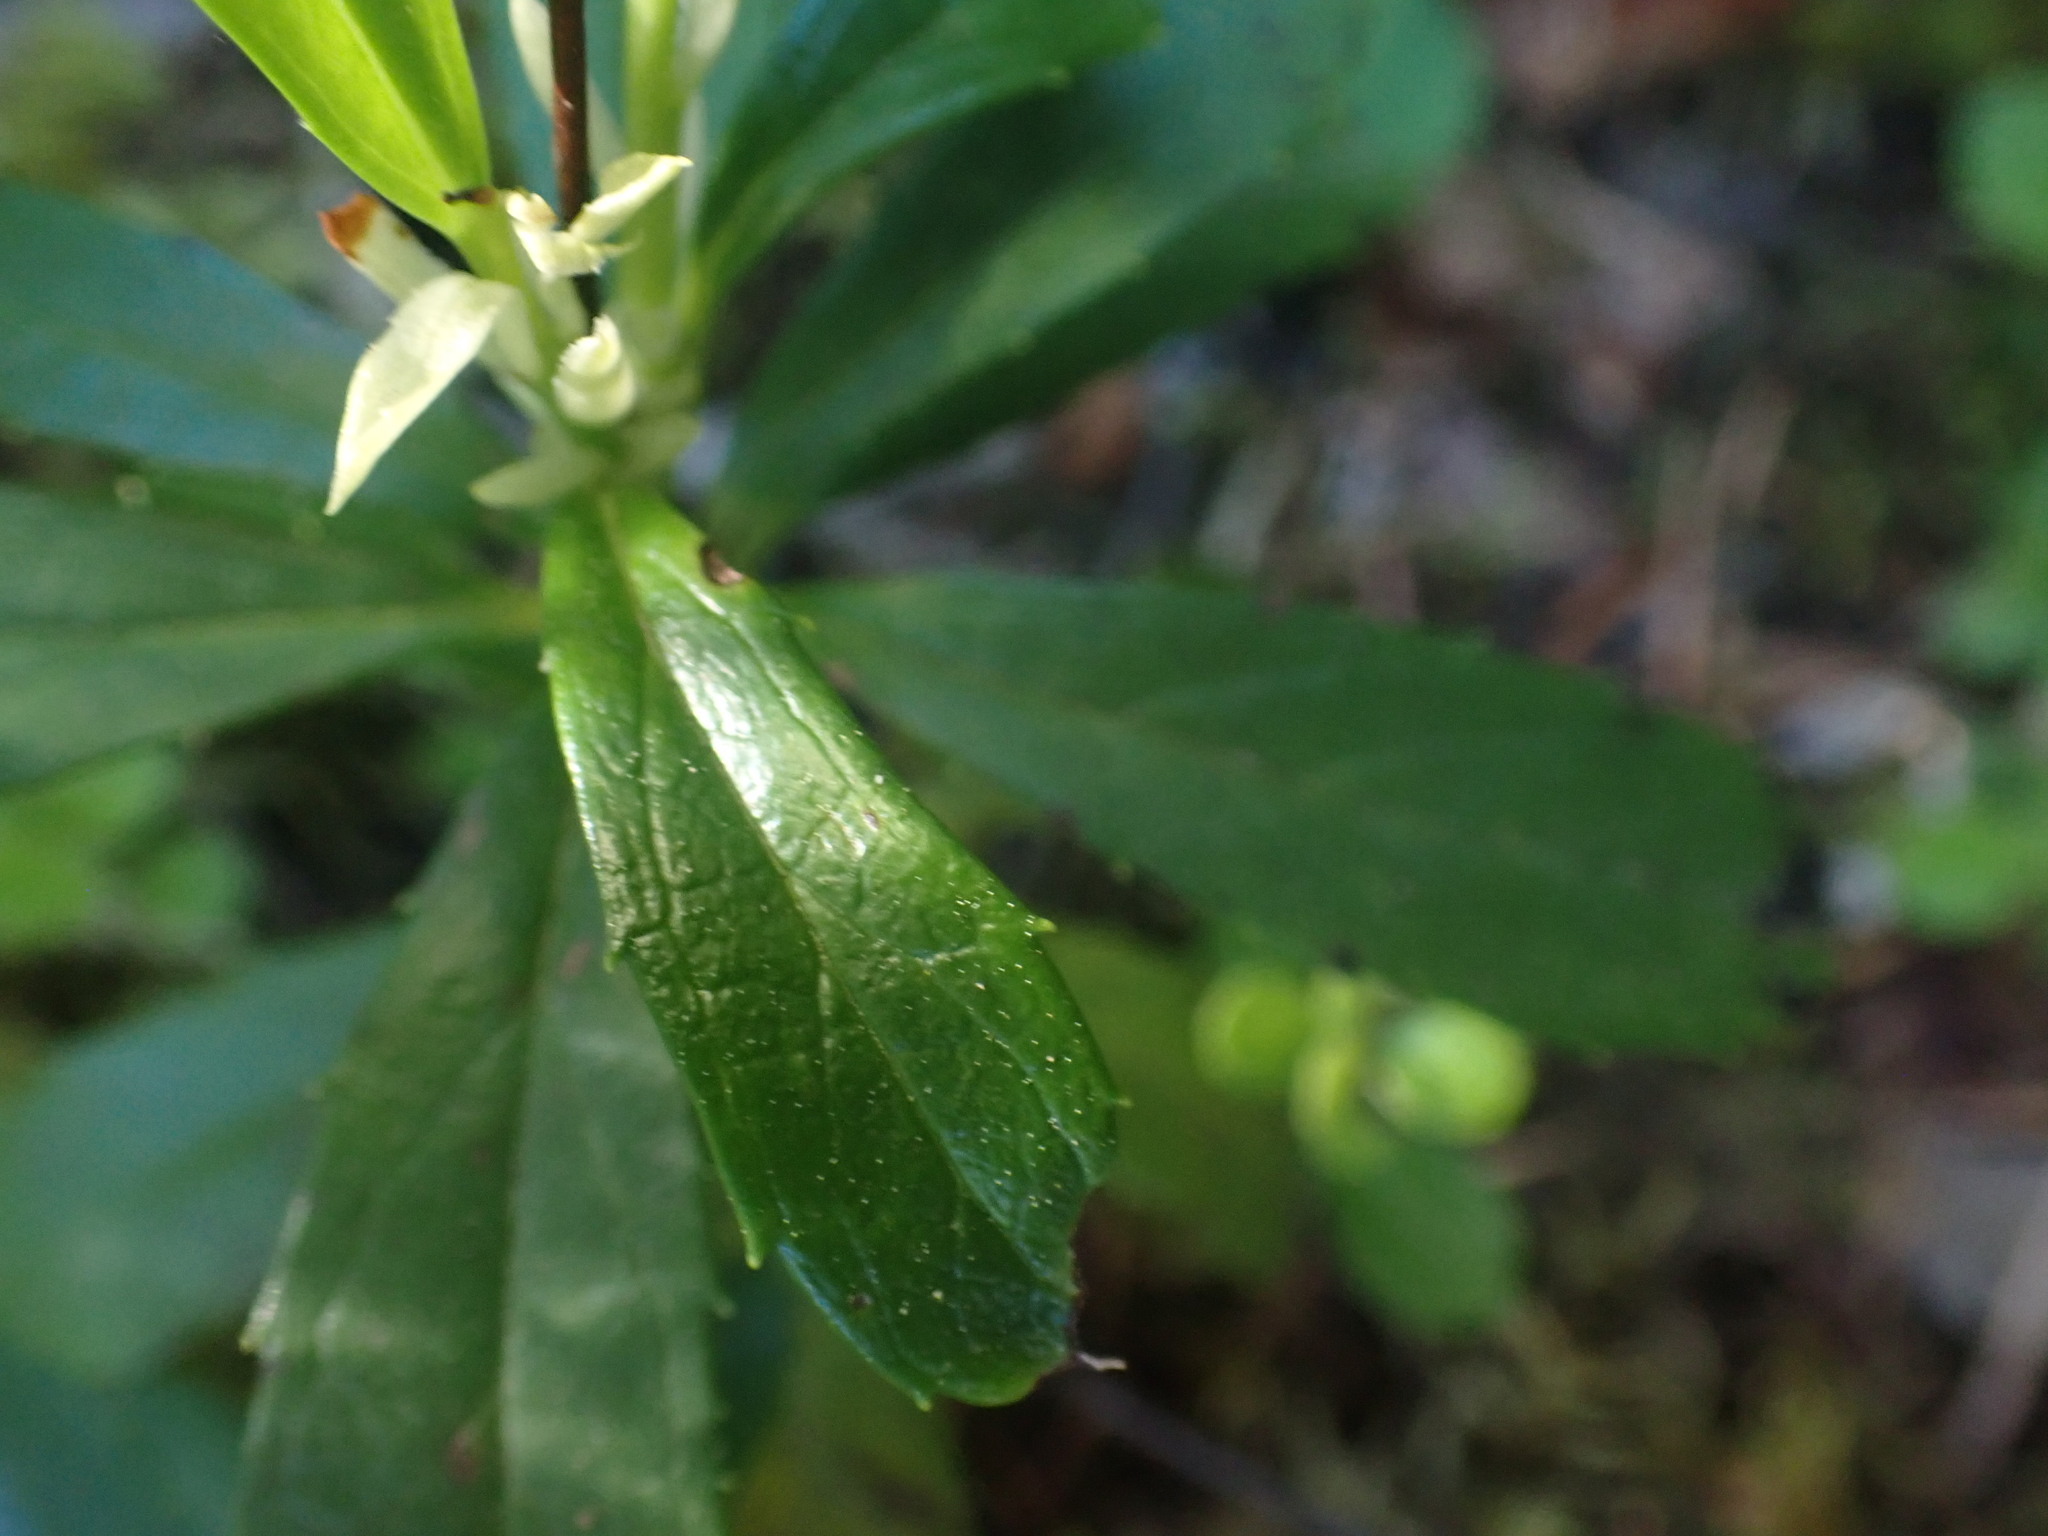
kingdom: Plantae
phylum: Tracheophyta
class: Magnoliopsida
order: Ericales
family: Ericaceae
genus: Chimaphila
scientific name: Chimaphila umbellata
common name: Pipsissewa
